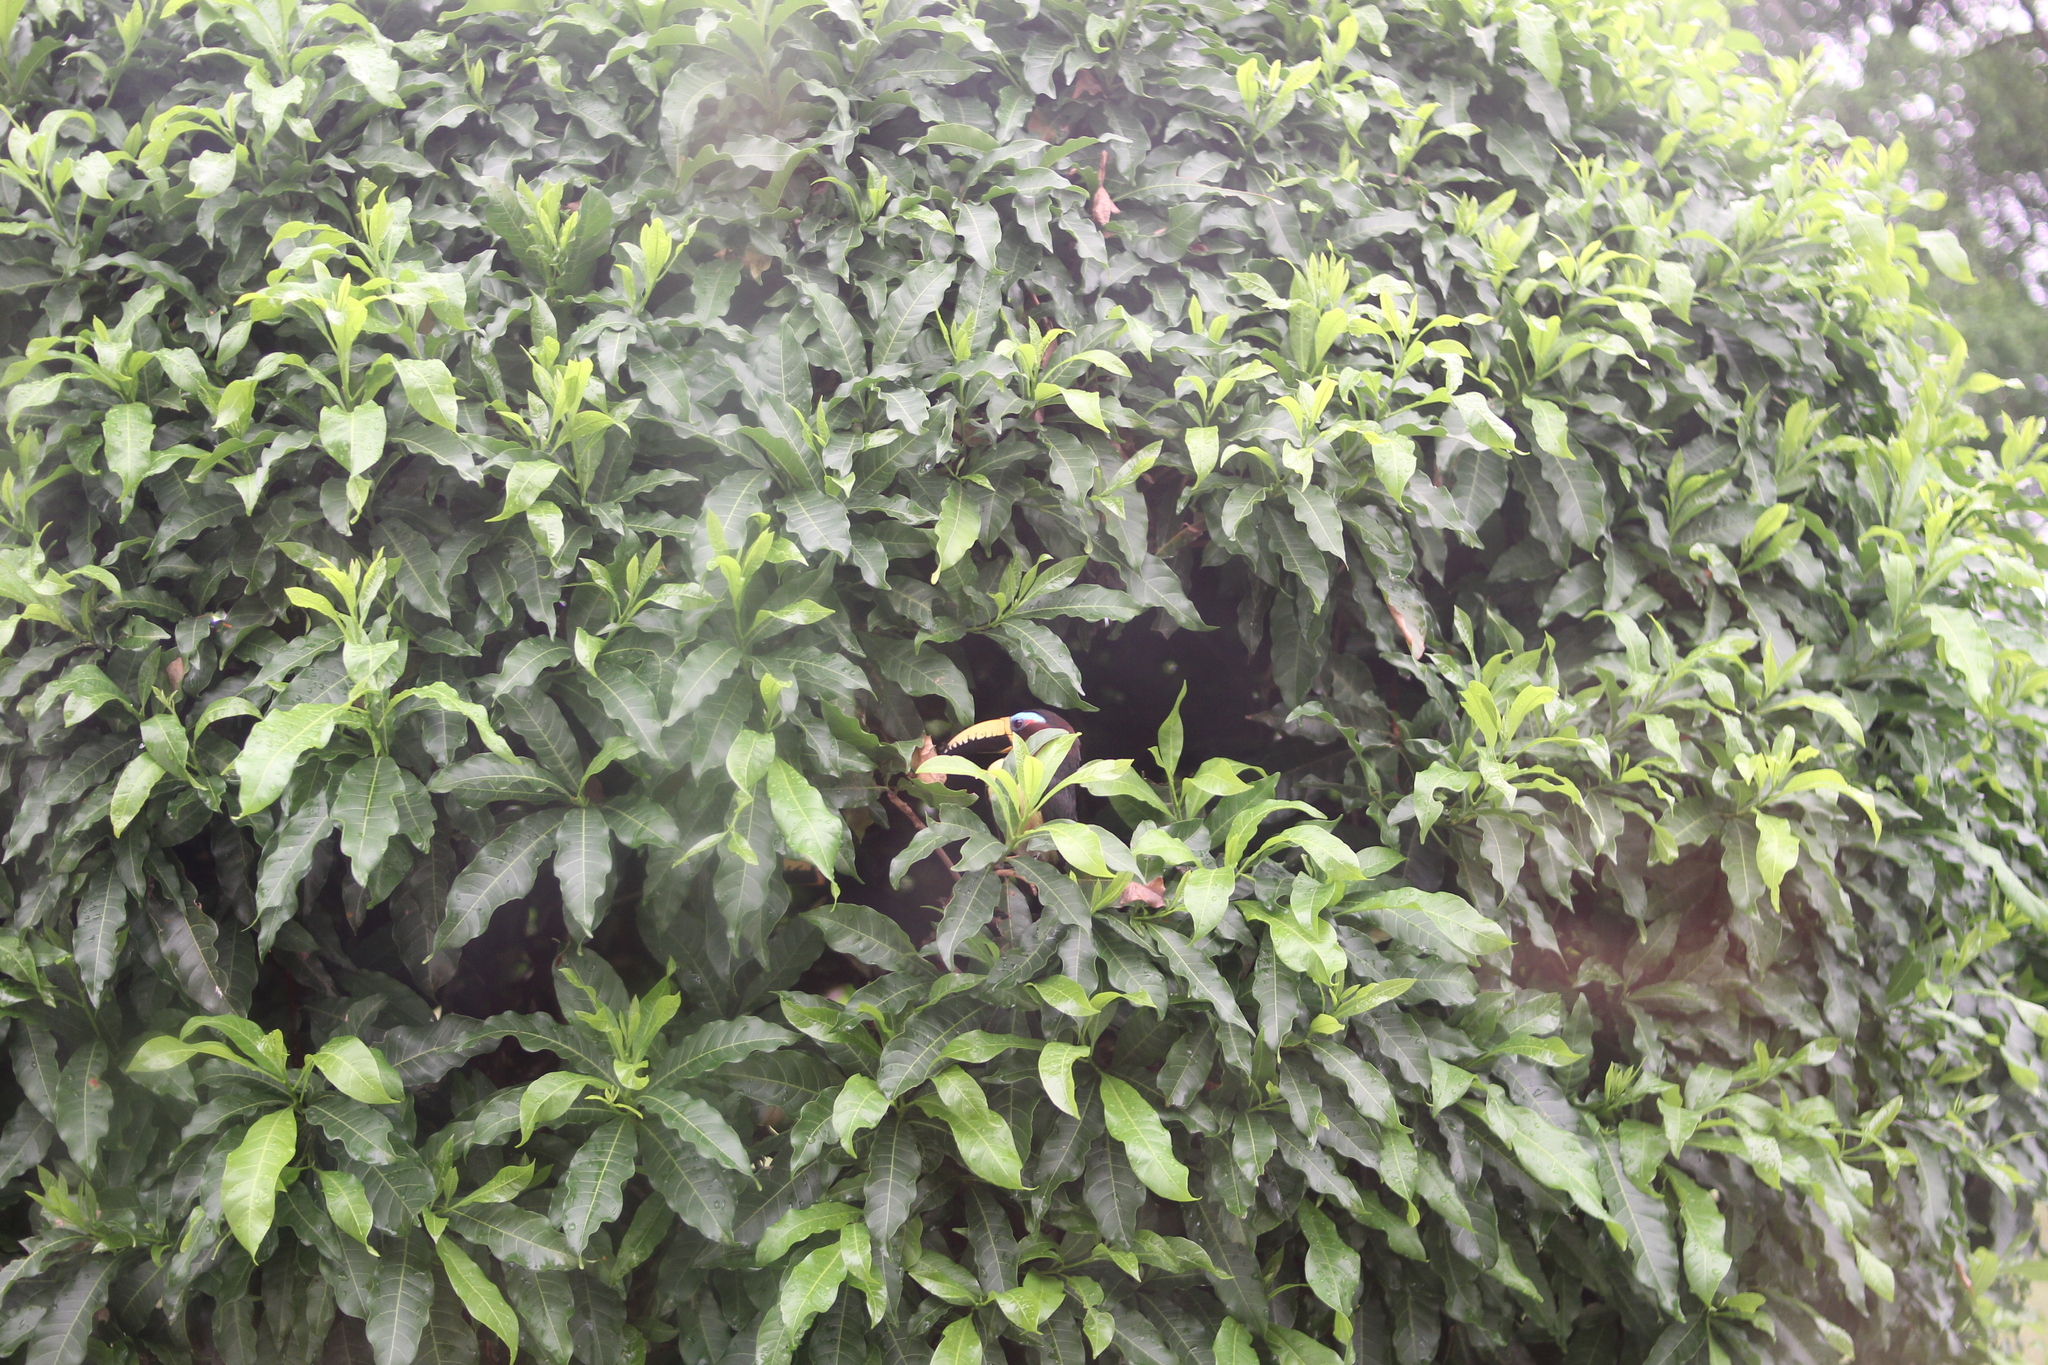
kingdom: Animalia
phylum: Chordata
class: Aves
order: Piciformes
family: Ramphastidae
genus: Pteroglossus
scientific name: Pteroglossus inscriptus
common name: Lettered aracari
